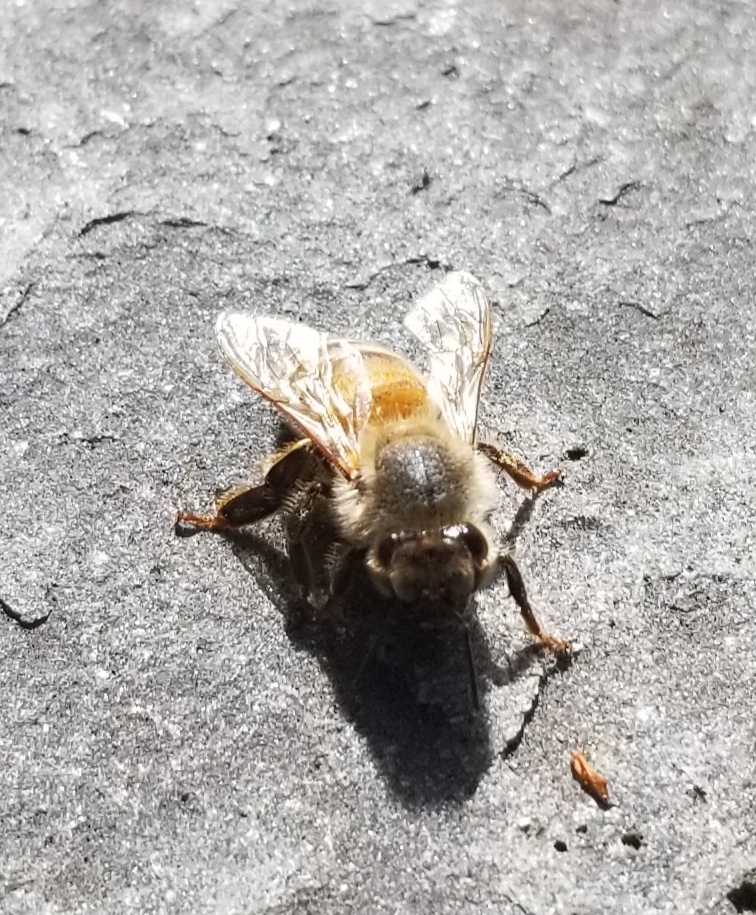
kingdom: Animalia
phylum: Arthropoda
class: Insecta
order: Hymenoptera
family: Apidae
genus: Apis
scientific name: Apis mellifera
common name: Honey bee
